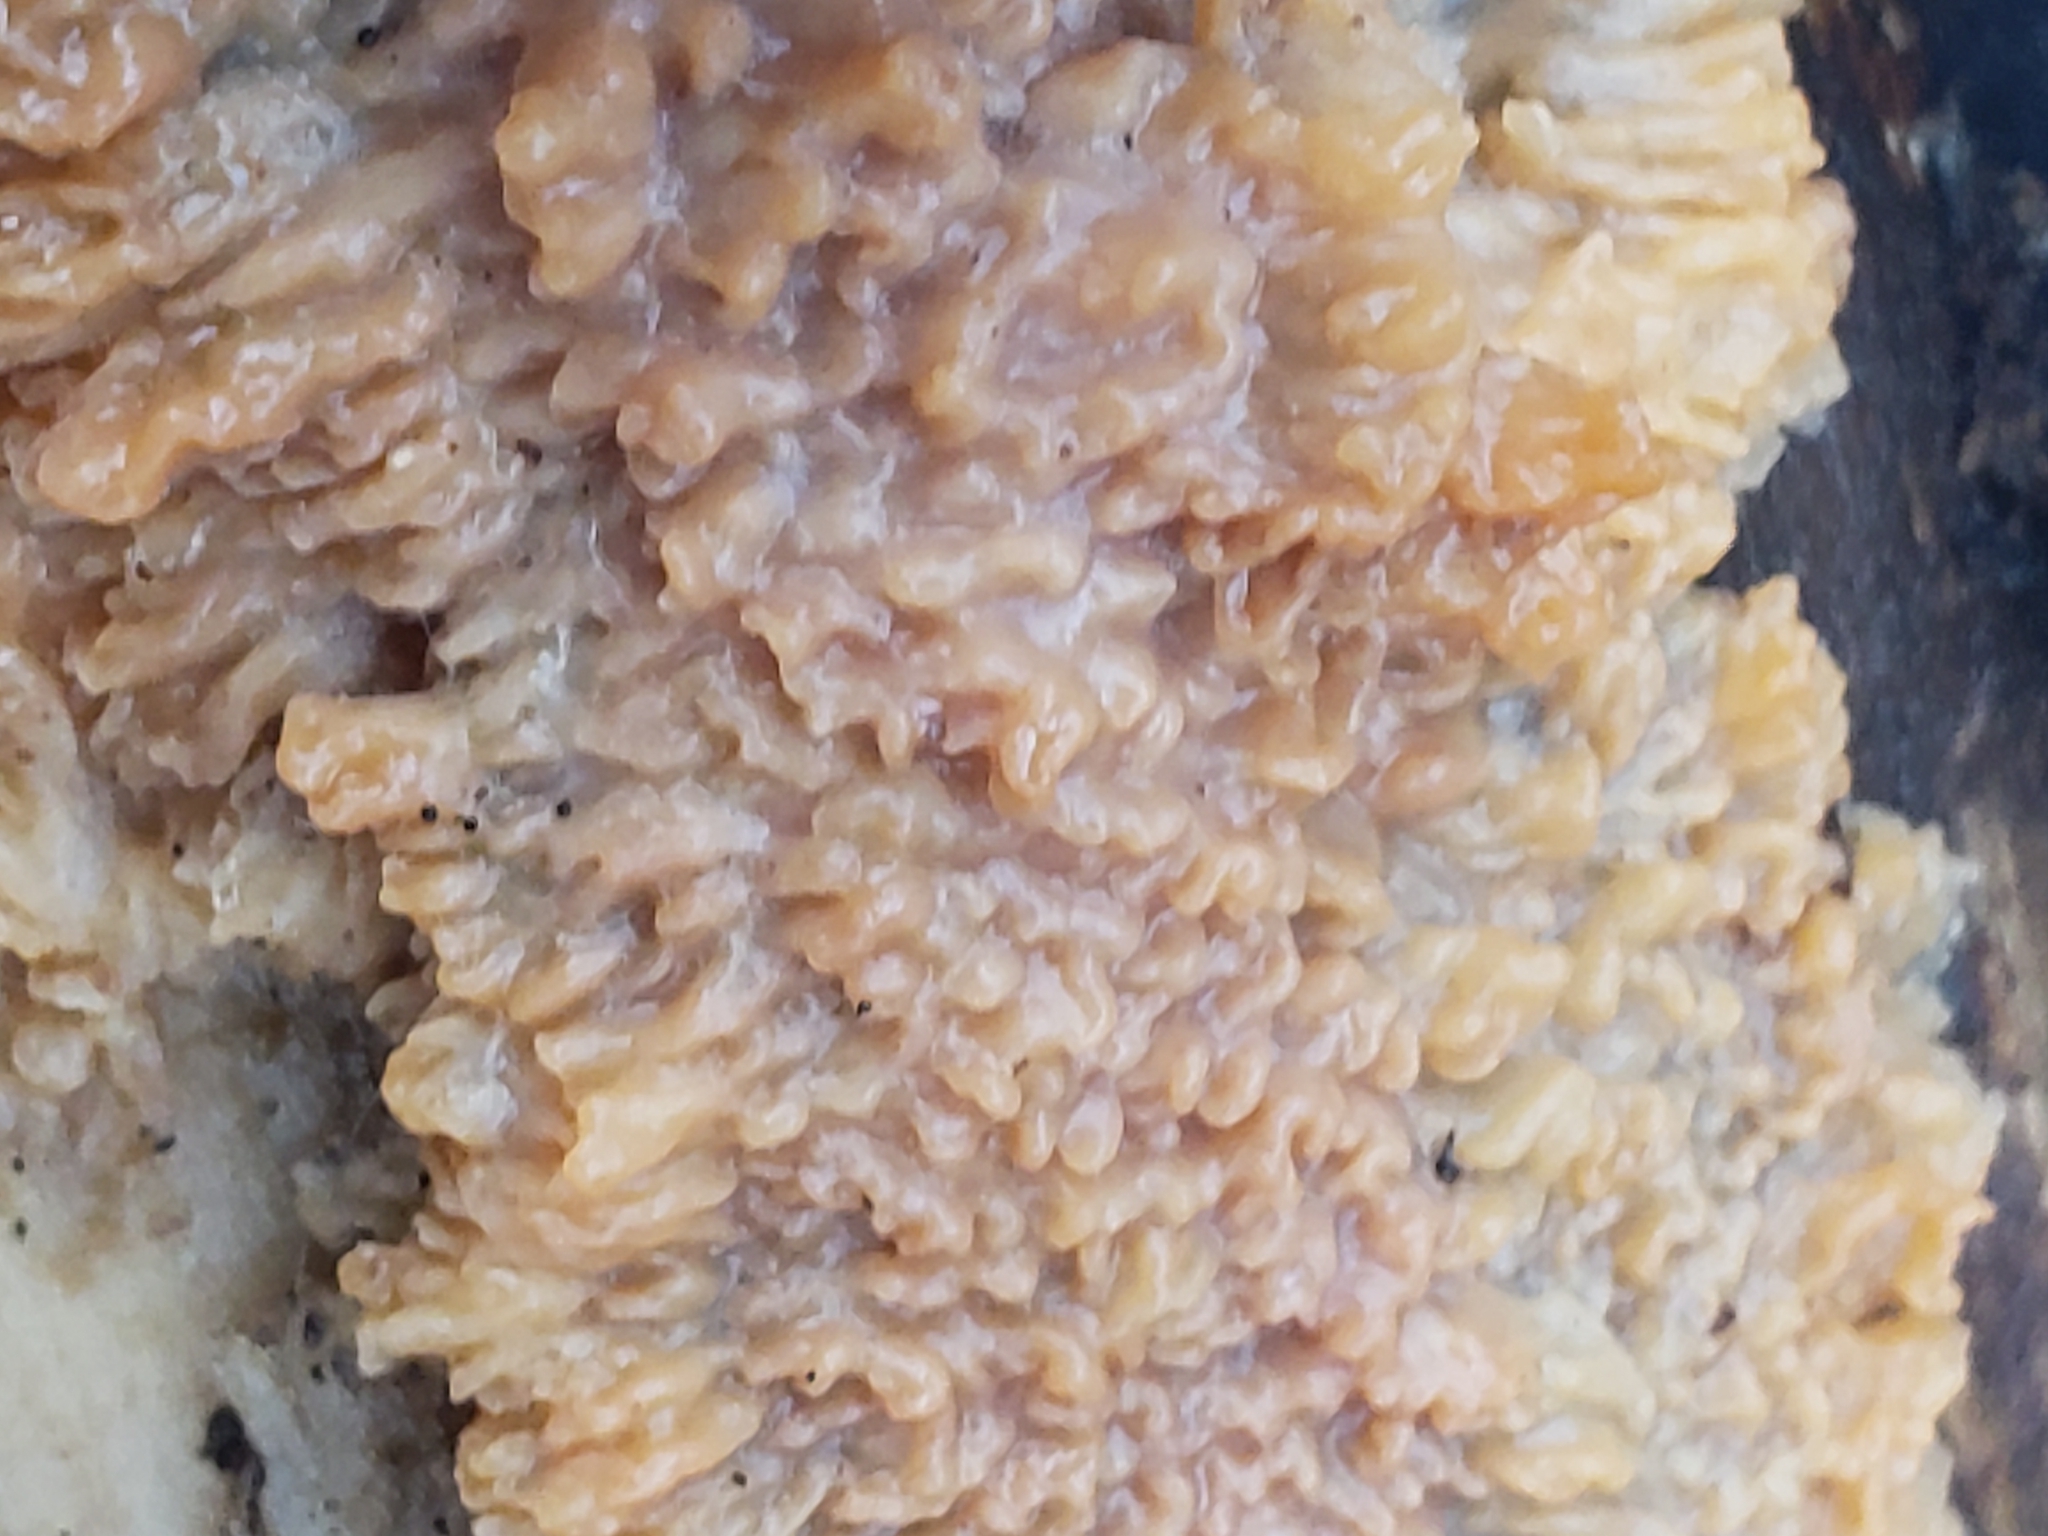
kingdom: Fungi
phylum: Basidiomycota
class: Agaricomycetes
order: Polyporales
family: Meruliaceae
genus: Phlebia
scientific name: Phlebia radiata
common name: Wrinkled crust
